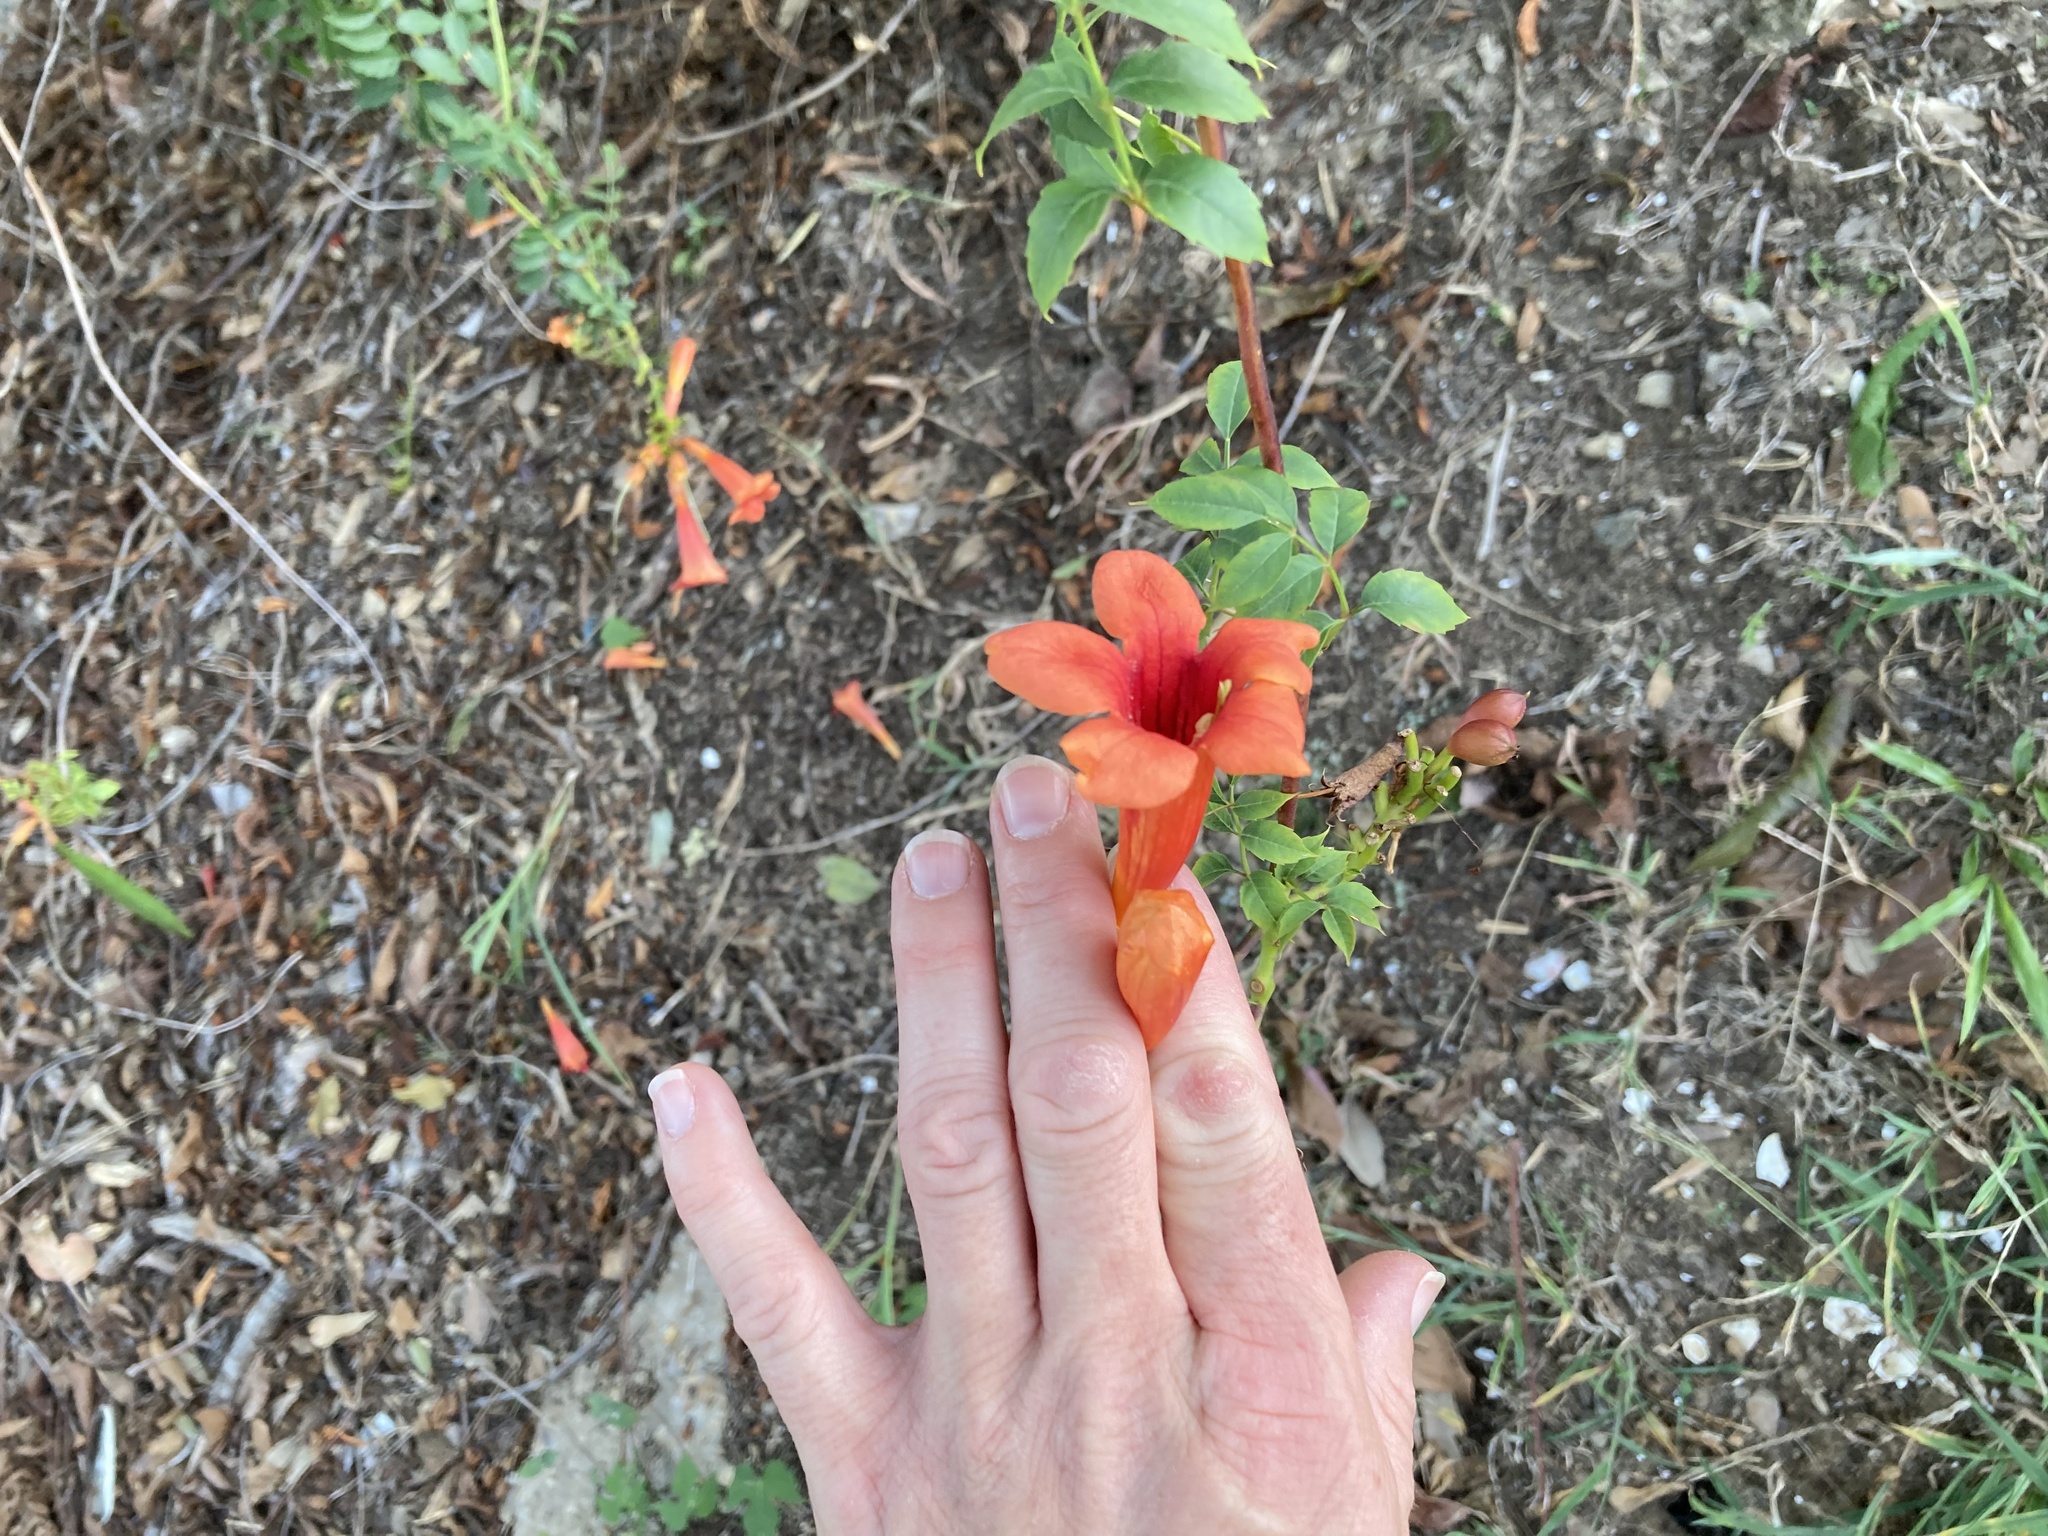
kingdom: Plantae
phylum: Tracheophyta
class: Magnoliopsida
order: Lamiales
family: Bignoniaceae
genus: Campsis
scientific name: Campsis radicans
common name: Trumpet-creeper
